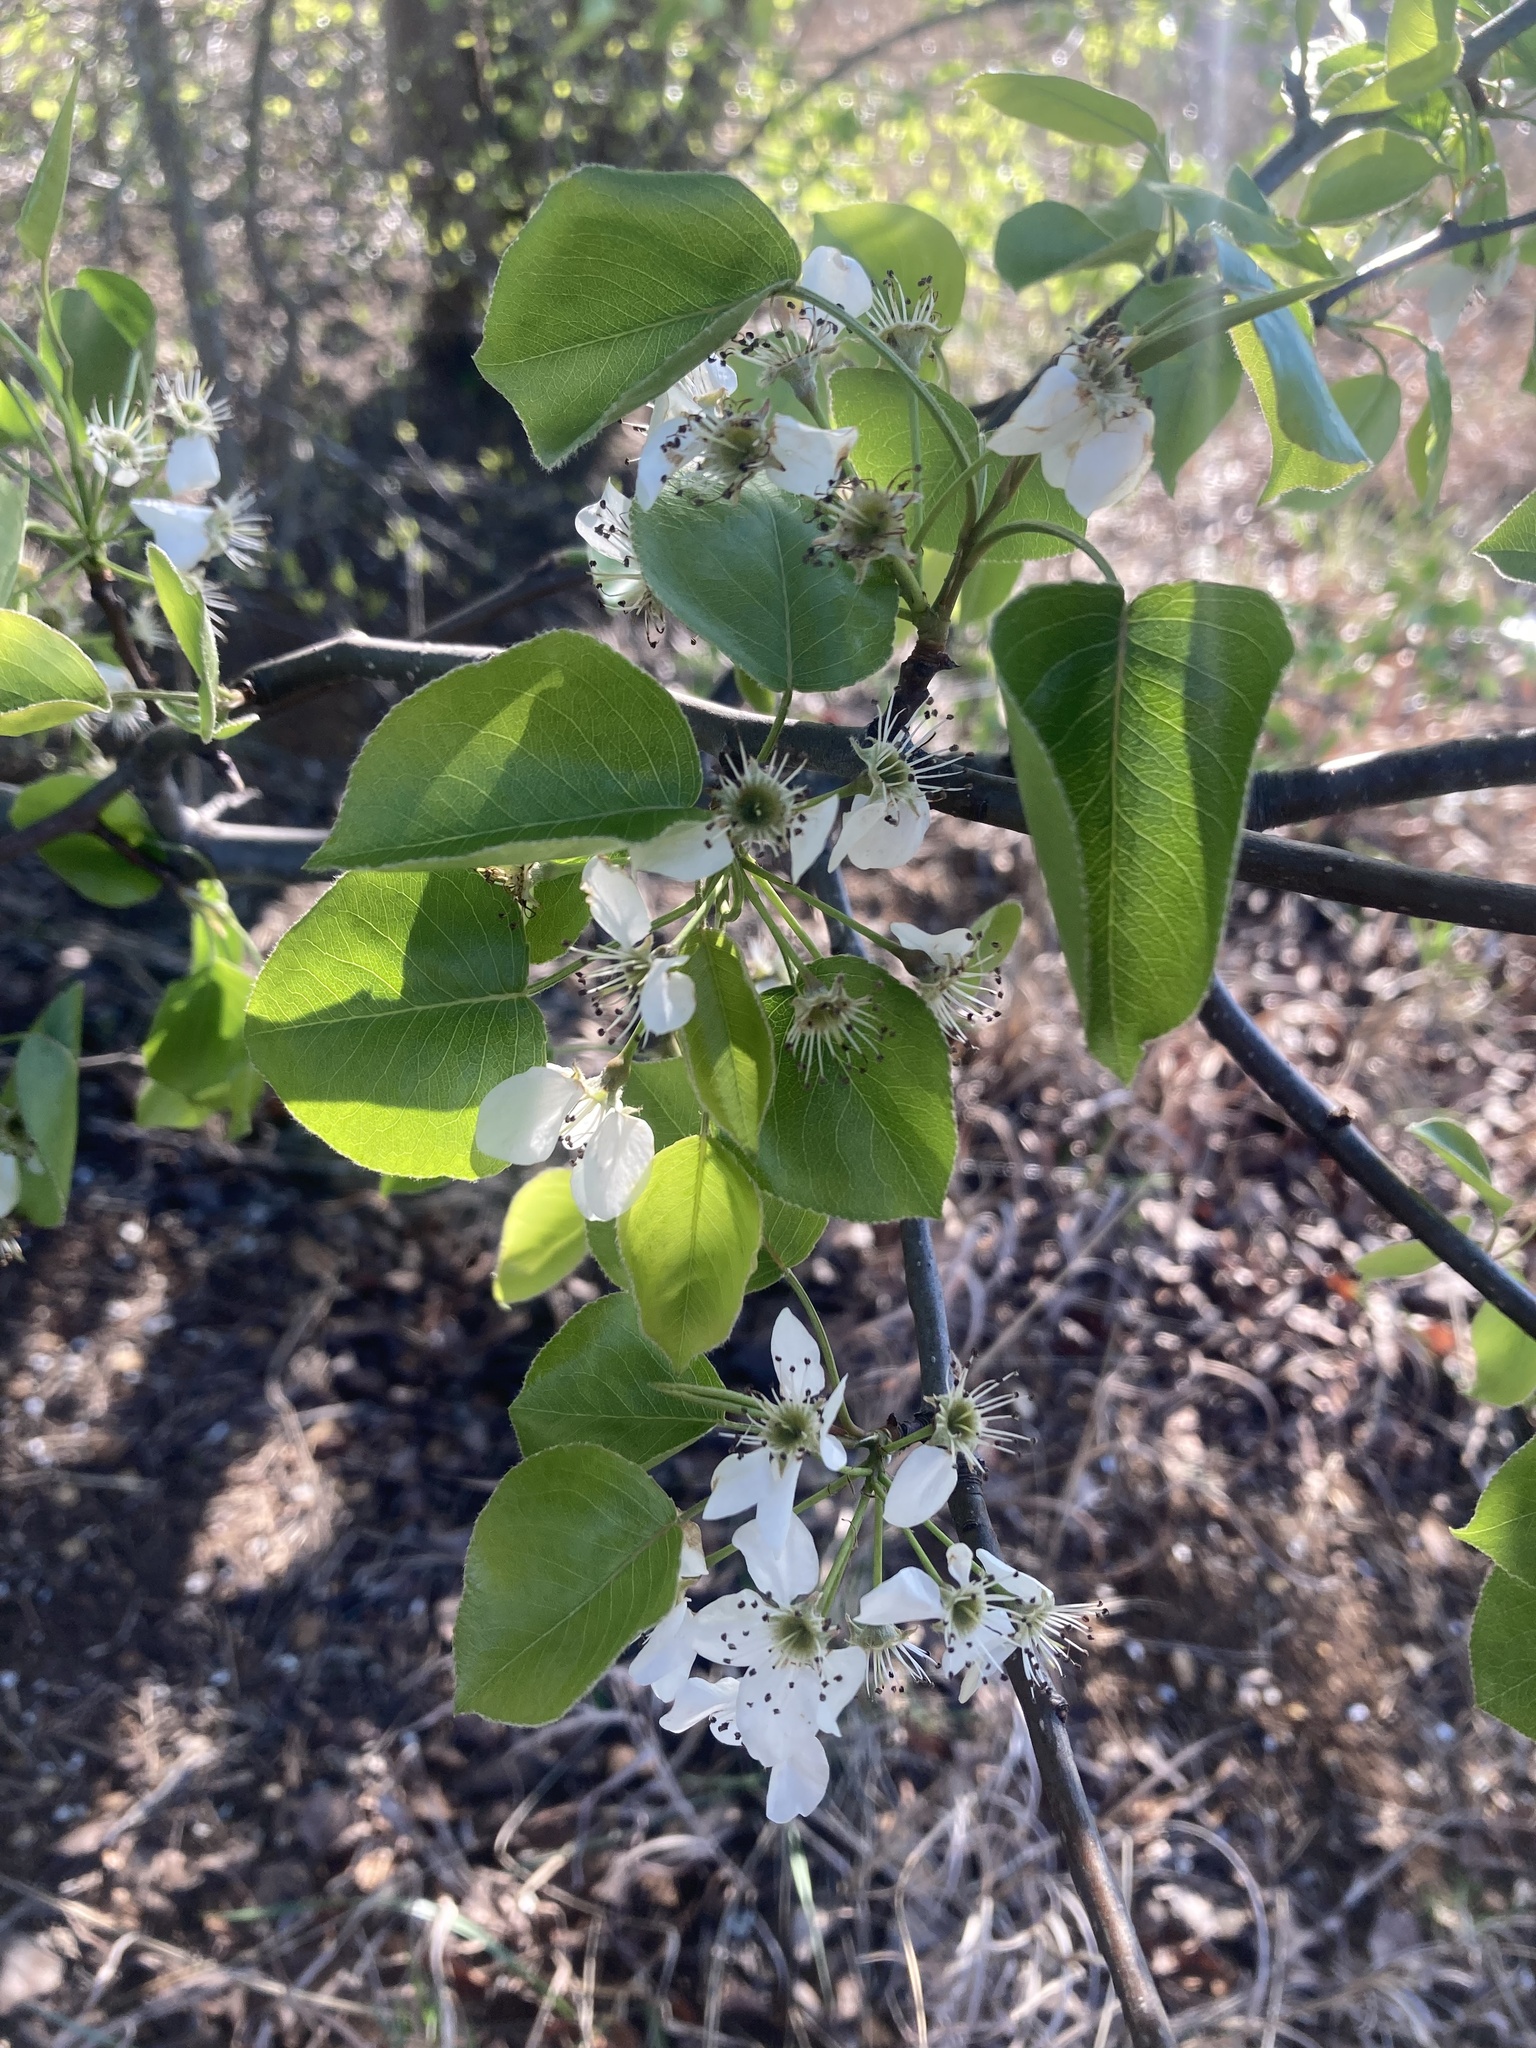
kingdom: Plantae
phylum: Tracheophyta
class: Magnoliopsida
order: Rosales
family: Rosaceae
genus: Pyrus
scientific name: Pyrus calleryana
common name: Callery pear
